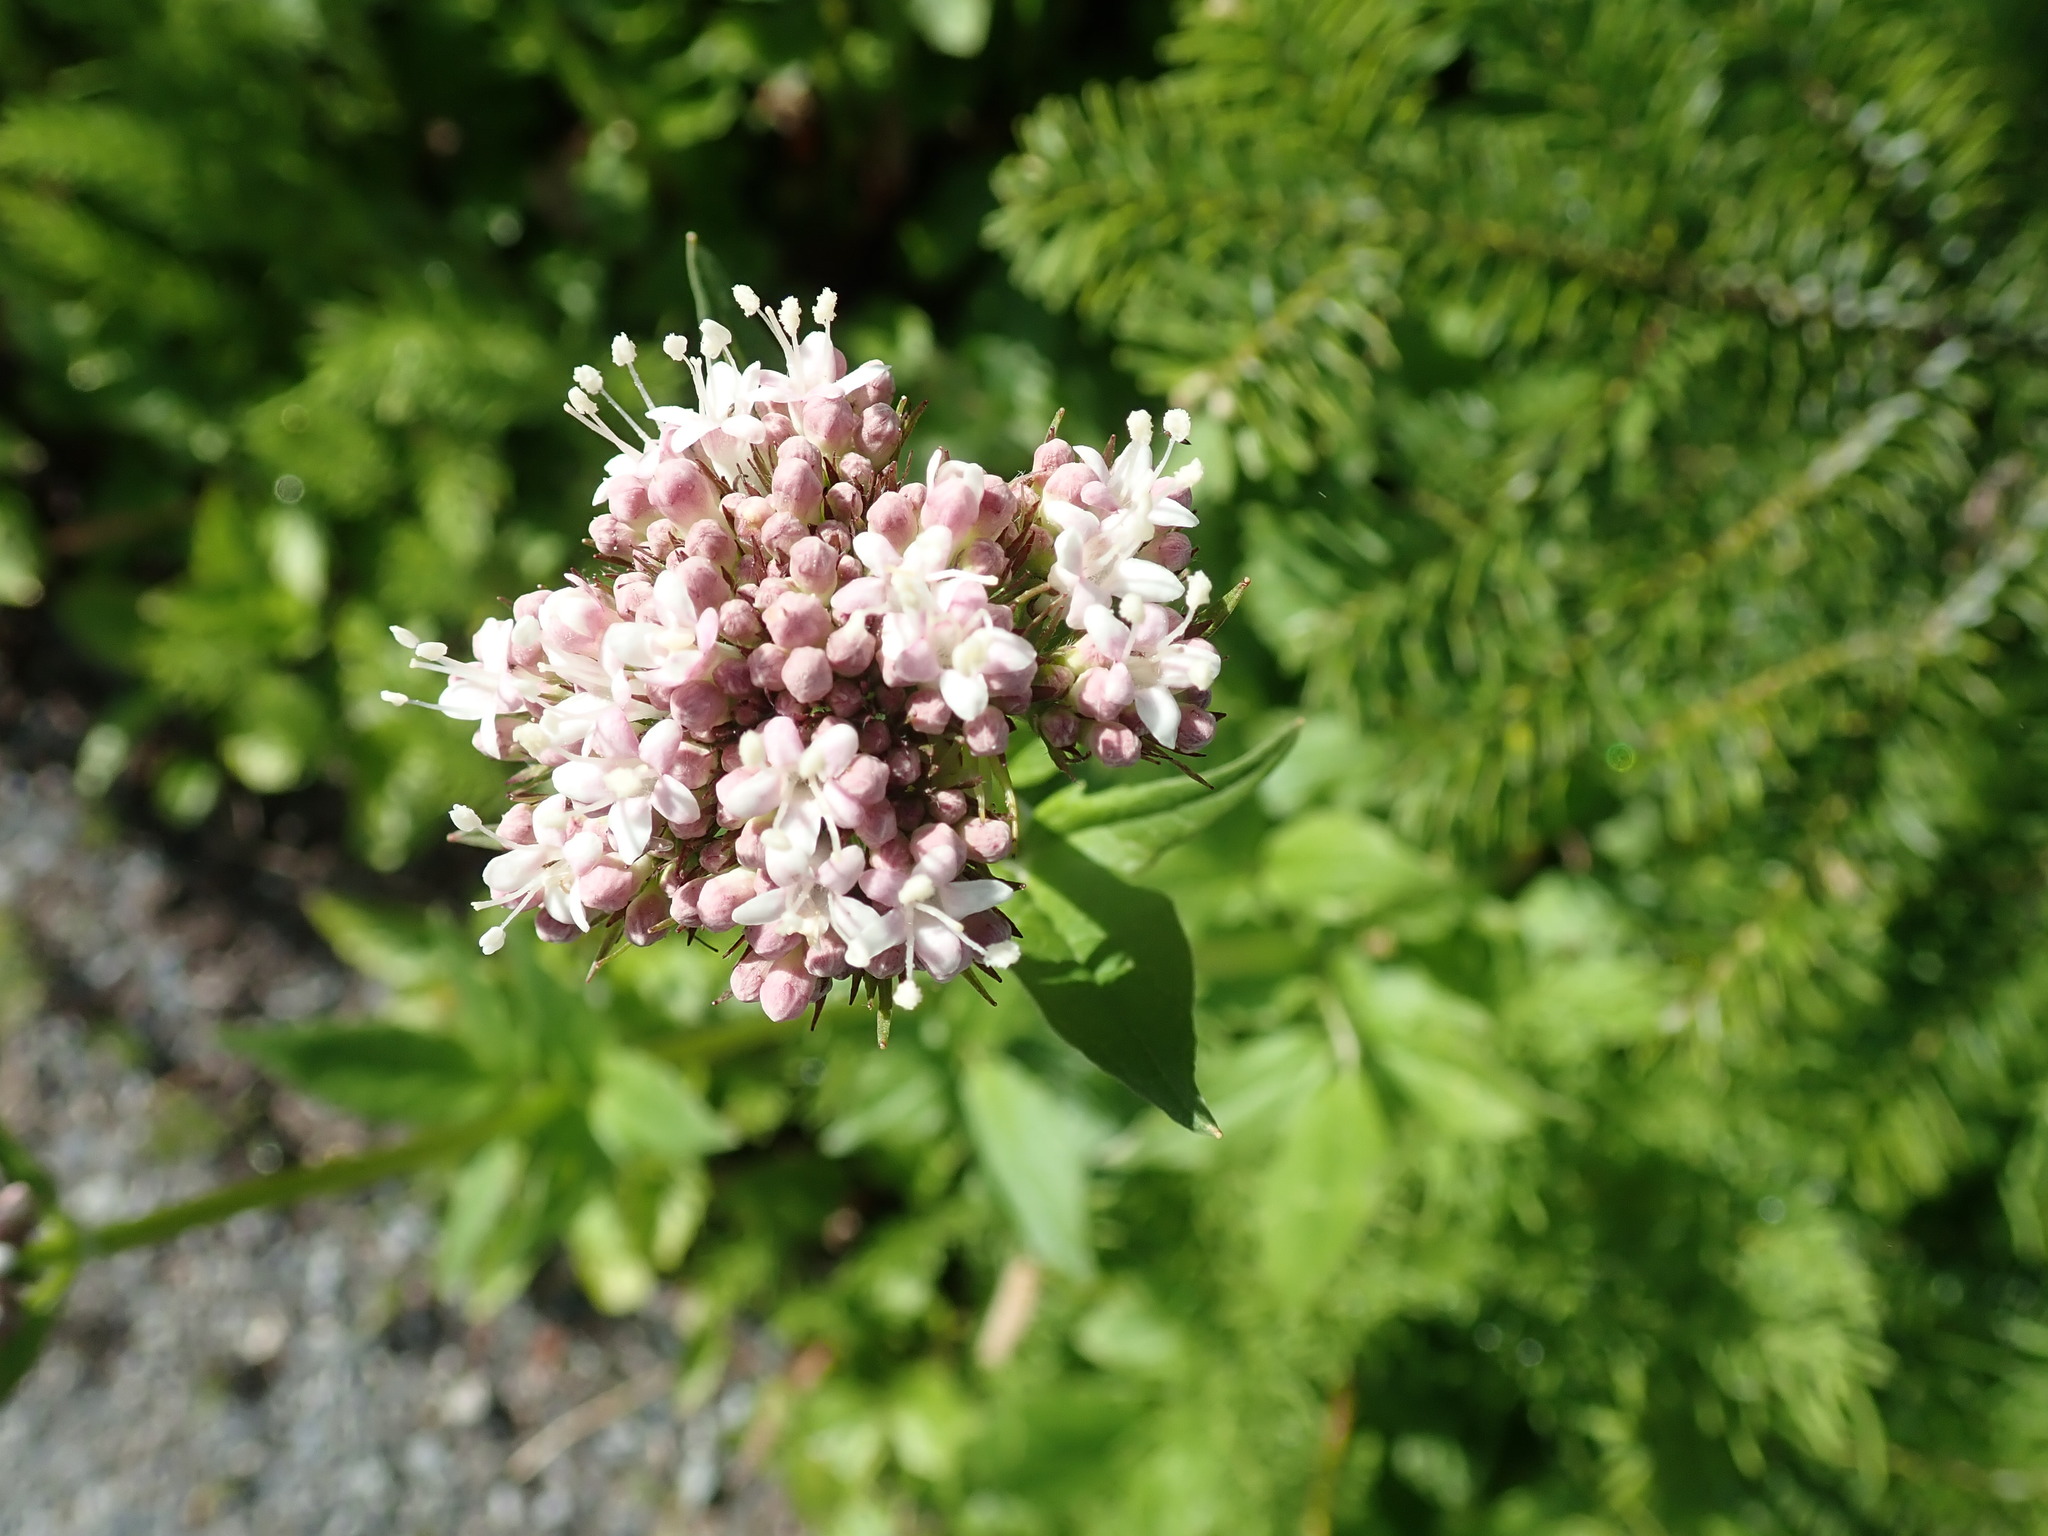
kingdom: Plantae
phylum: Tracheophyta
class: Magnoliopsida
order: Dipsacales
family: Caprifoliaceae
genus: Valeriana
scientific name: Valeriana sitchensis
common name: Pacific valerian
